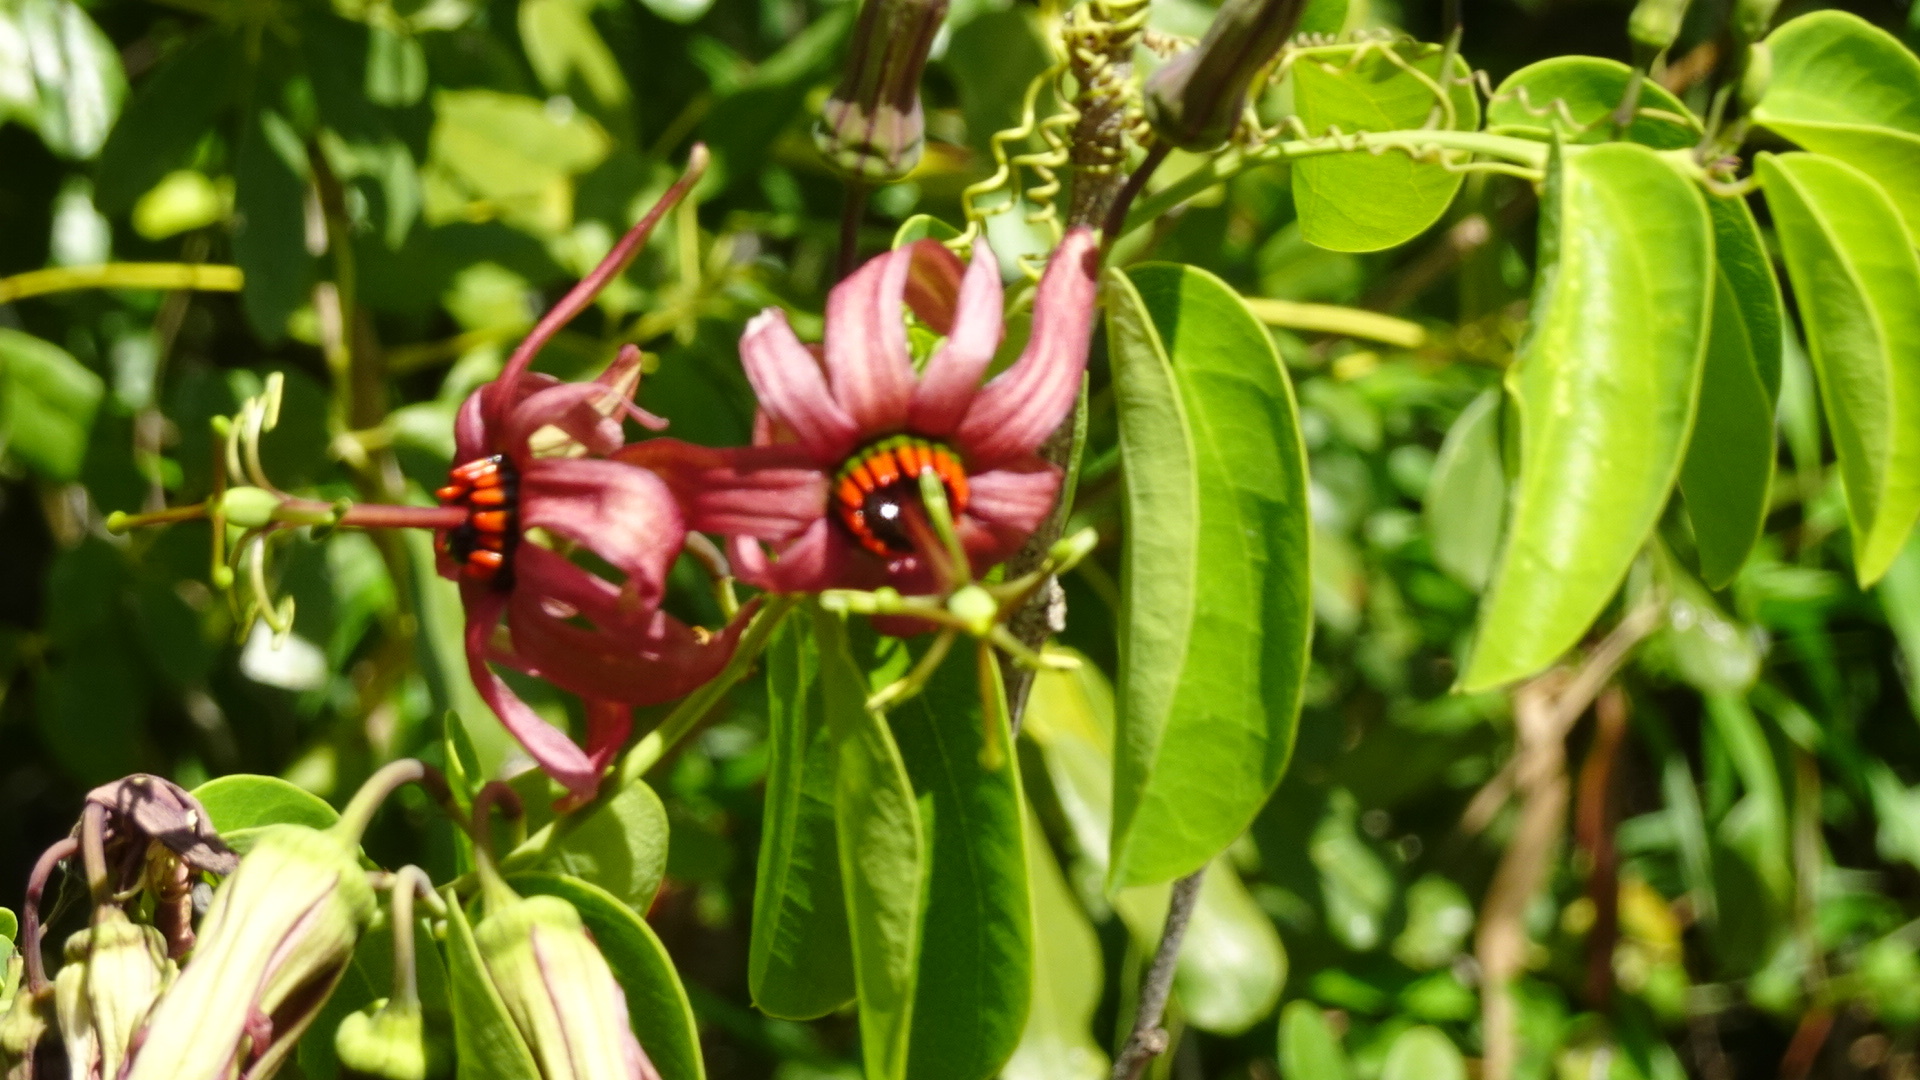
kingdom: Plantae
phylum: Tracheophyta
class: Magnoliopsida
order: Malpighiales
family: Passifloraceae
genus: Passiflora
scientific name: Passiflora cupraea
